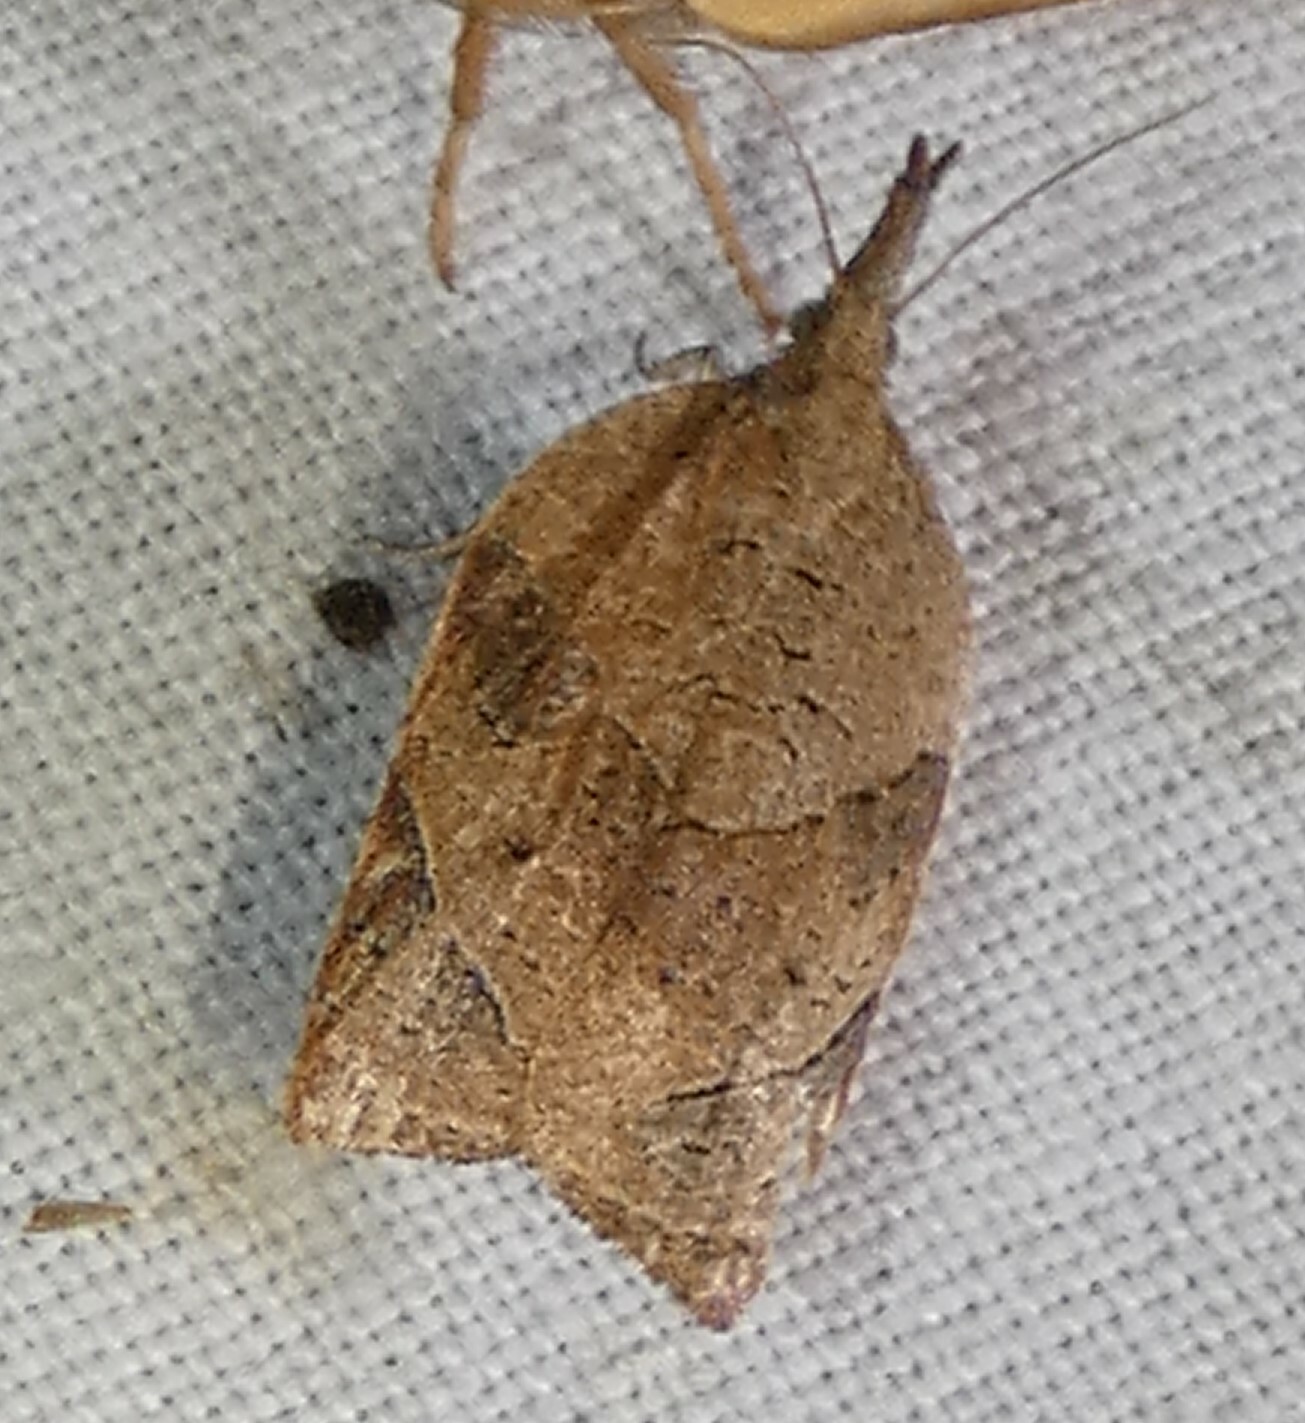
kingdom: Animalia
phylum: Arthropoda
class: Insecta
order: Lepidoptera
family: Tortricidae
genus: Platynota
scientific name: Platynota rostrana
